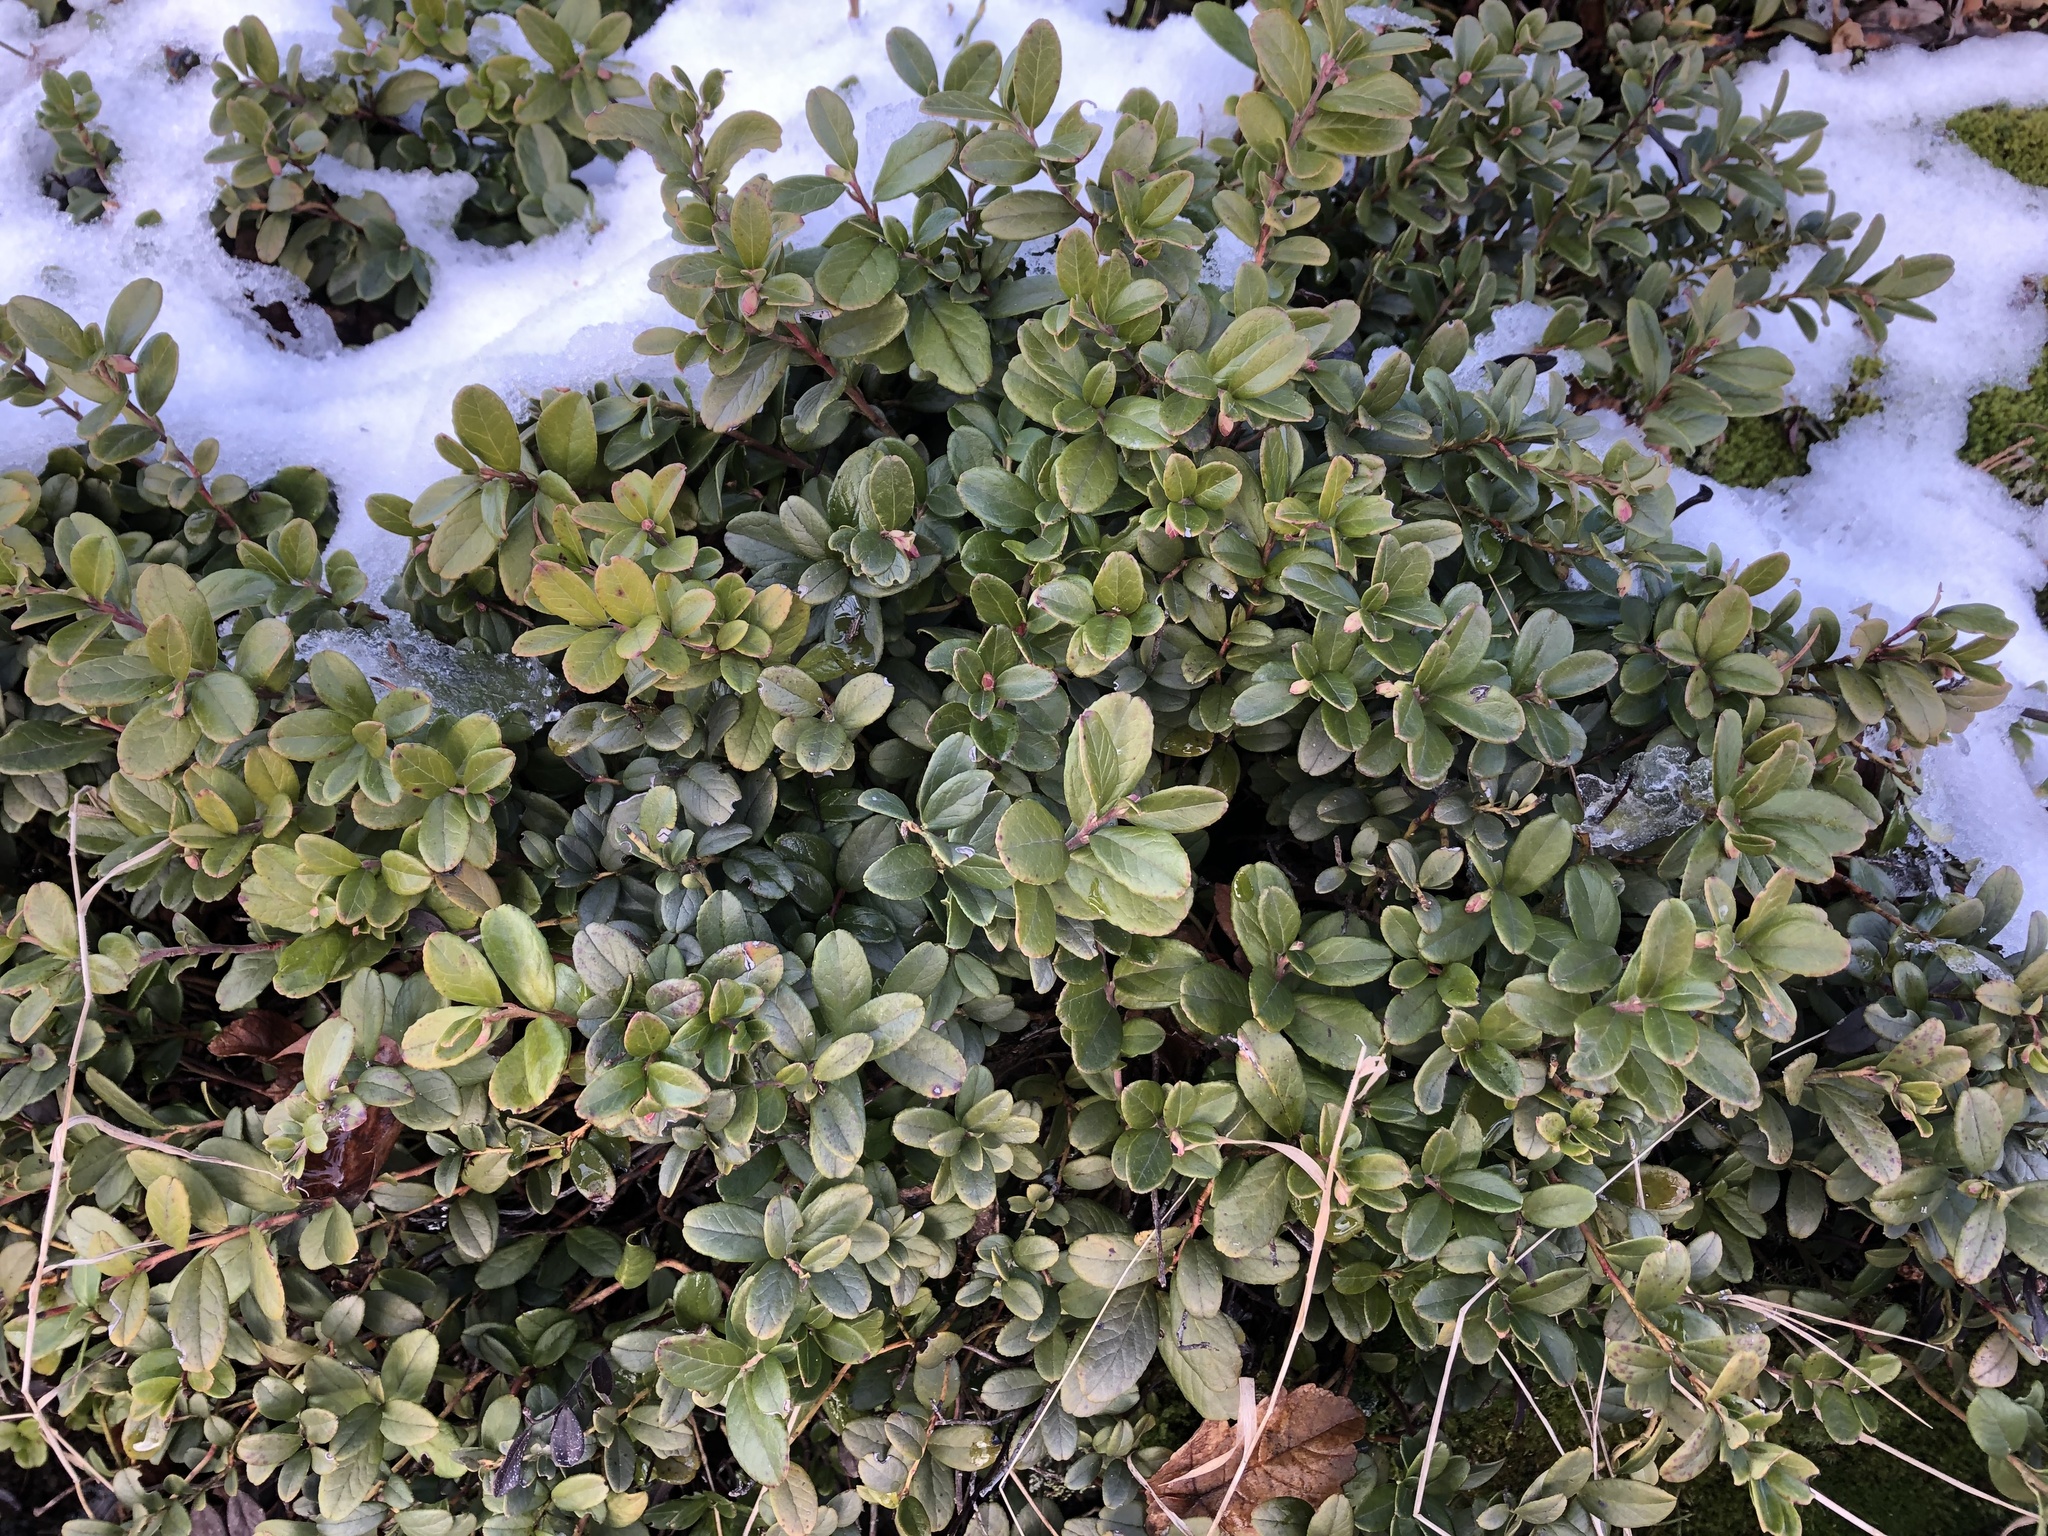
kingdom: Plantae
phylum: Tracheophyta
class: Magnoliopsida
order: Ericales
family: Ericaceae
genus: Vaccinium
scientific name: Vaccinium vitis-idaea
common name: Cowberry
